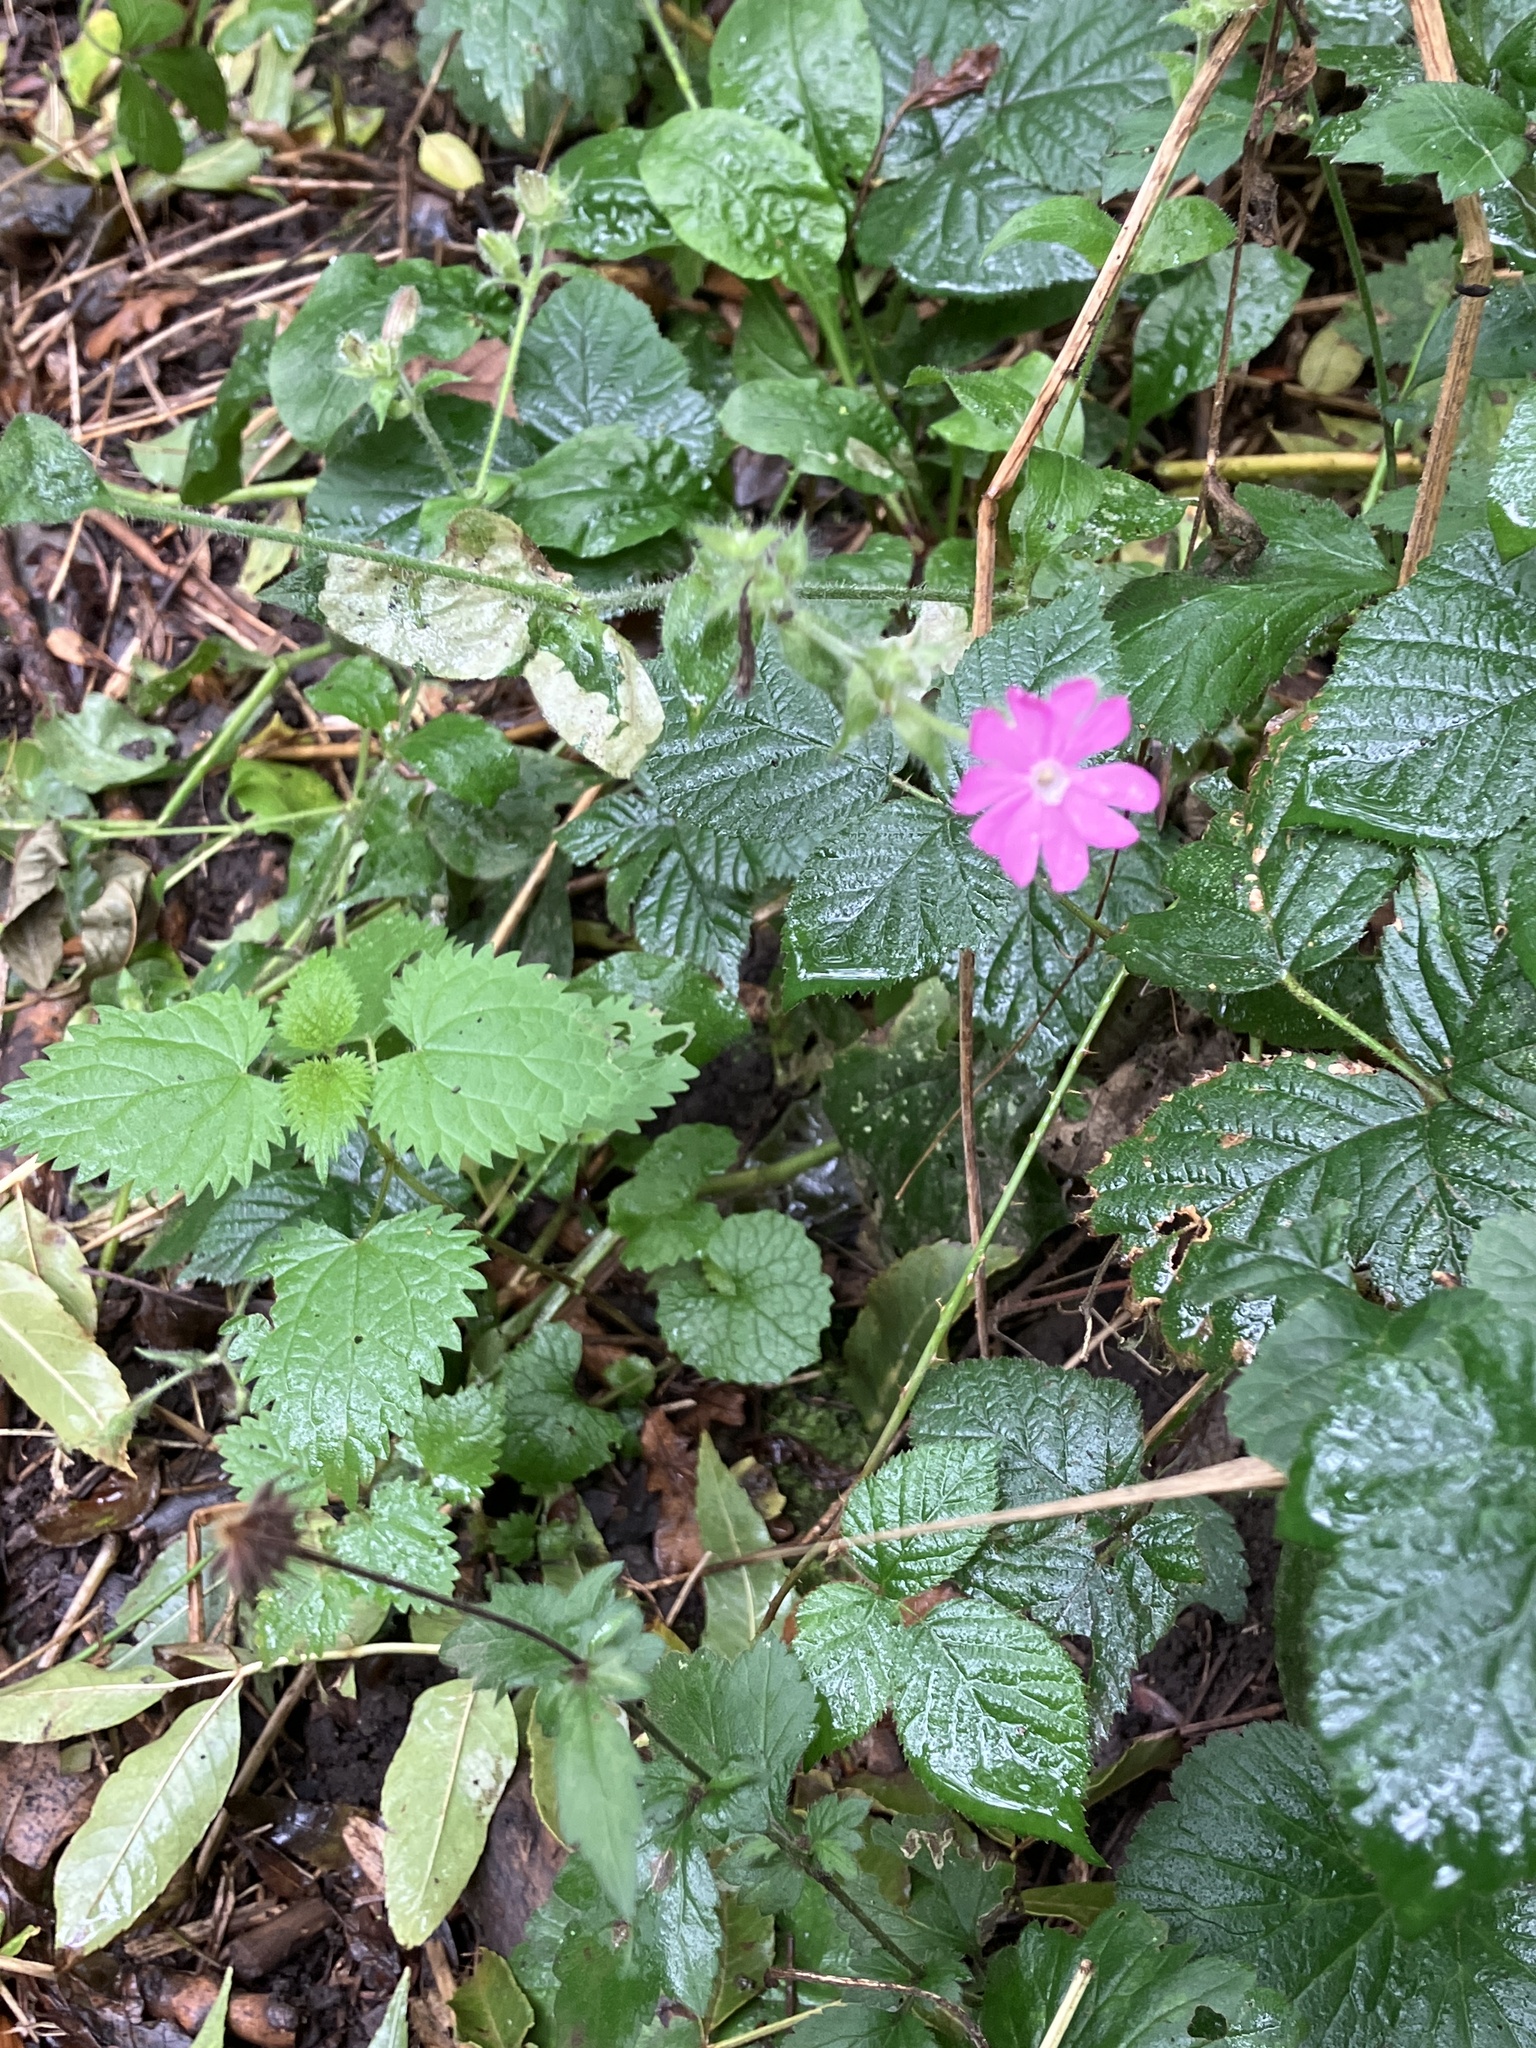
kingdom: Plantae
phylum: Tracheophyta
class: Magnoliopsida
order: Caryophyllales
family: Caryophyllaceae
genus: Silene
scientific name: Silene dioica
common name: Red campion
